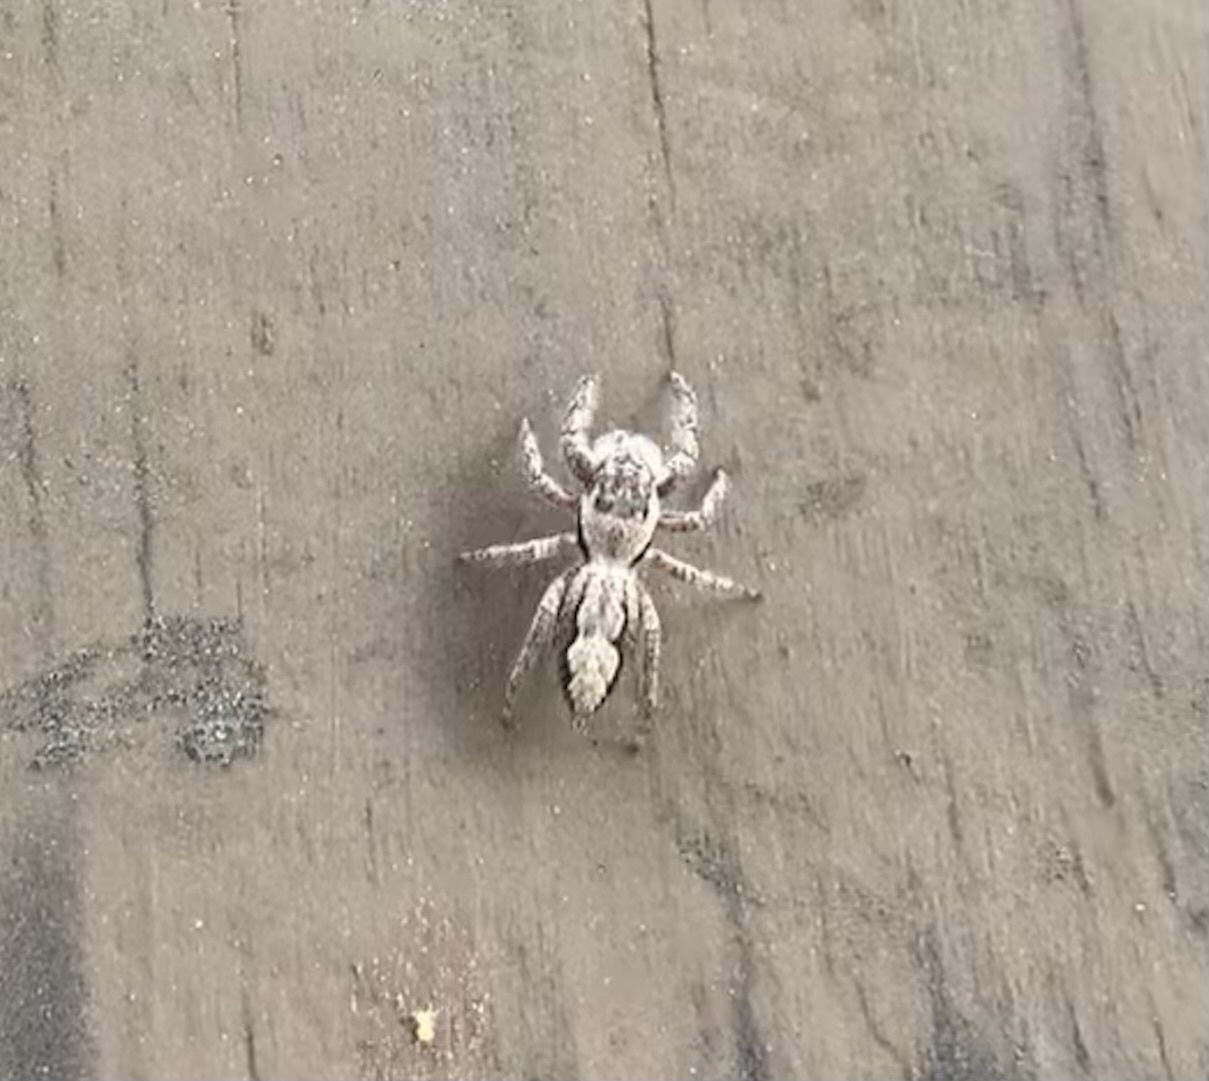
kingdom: Animalia
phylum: Arthropoda
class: Arachnida
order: Araneae
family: Salticidae
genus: Platycryptus
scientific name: Platycryptus undatus
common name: Tan jumping spider
